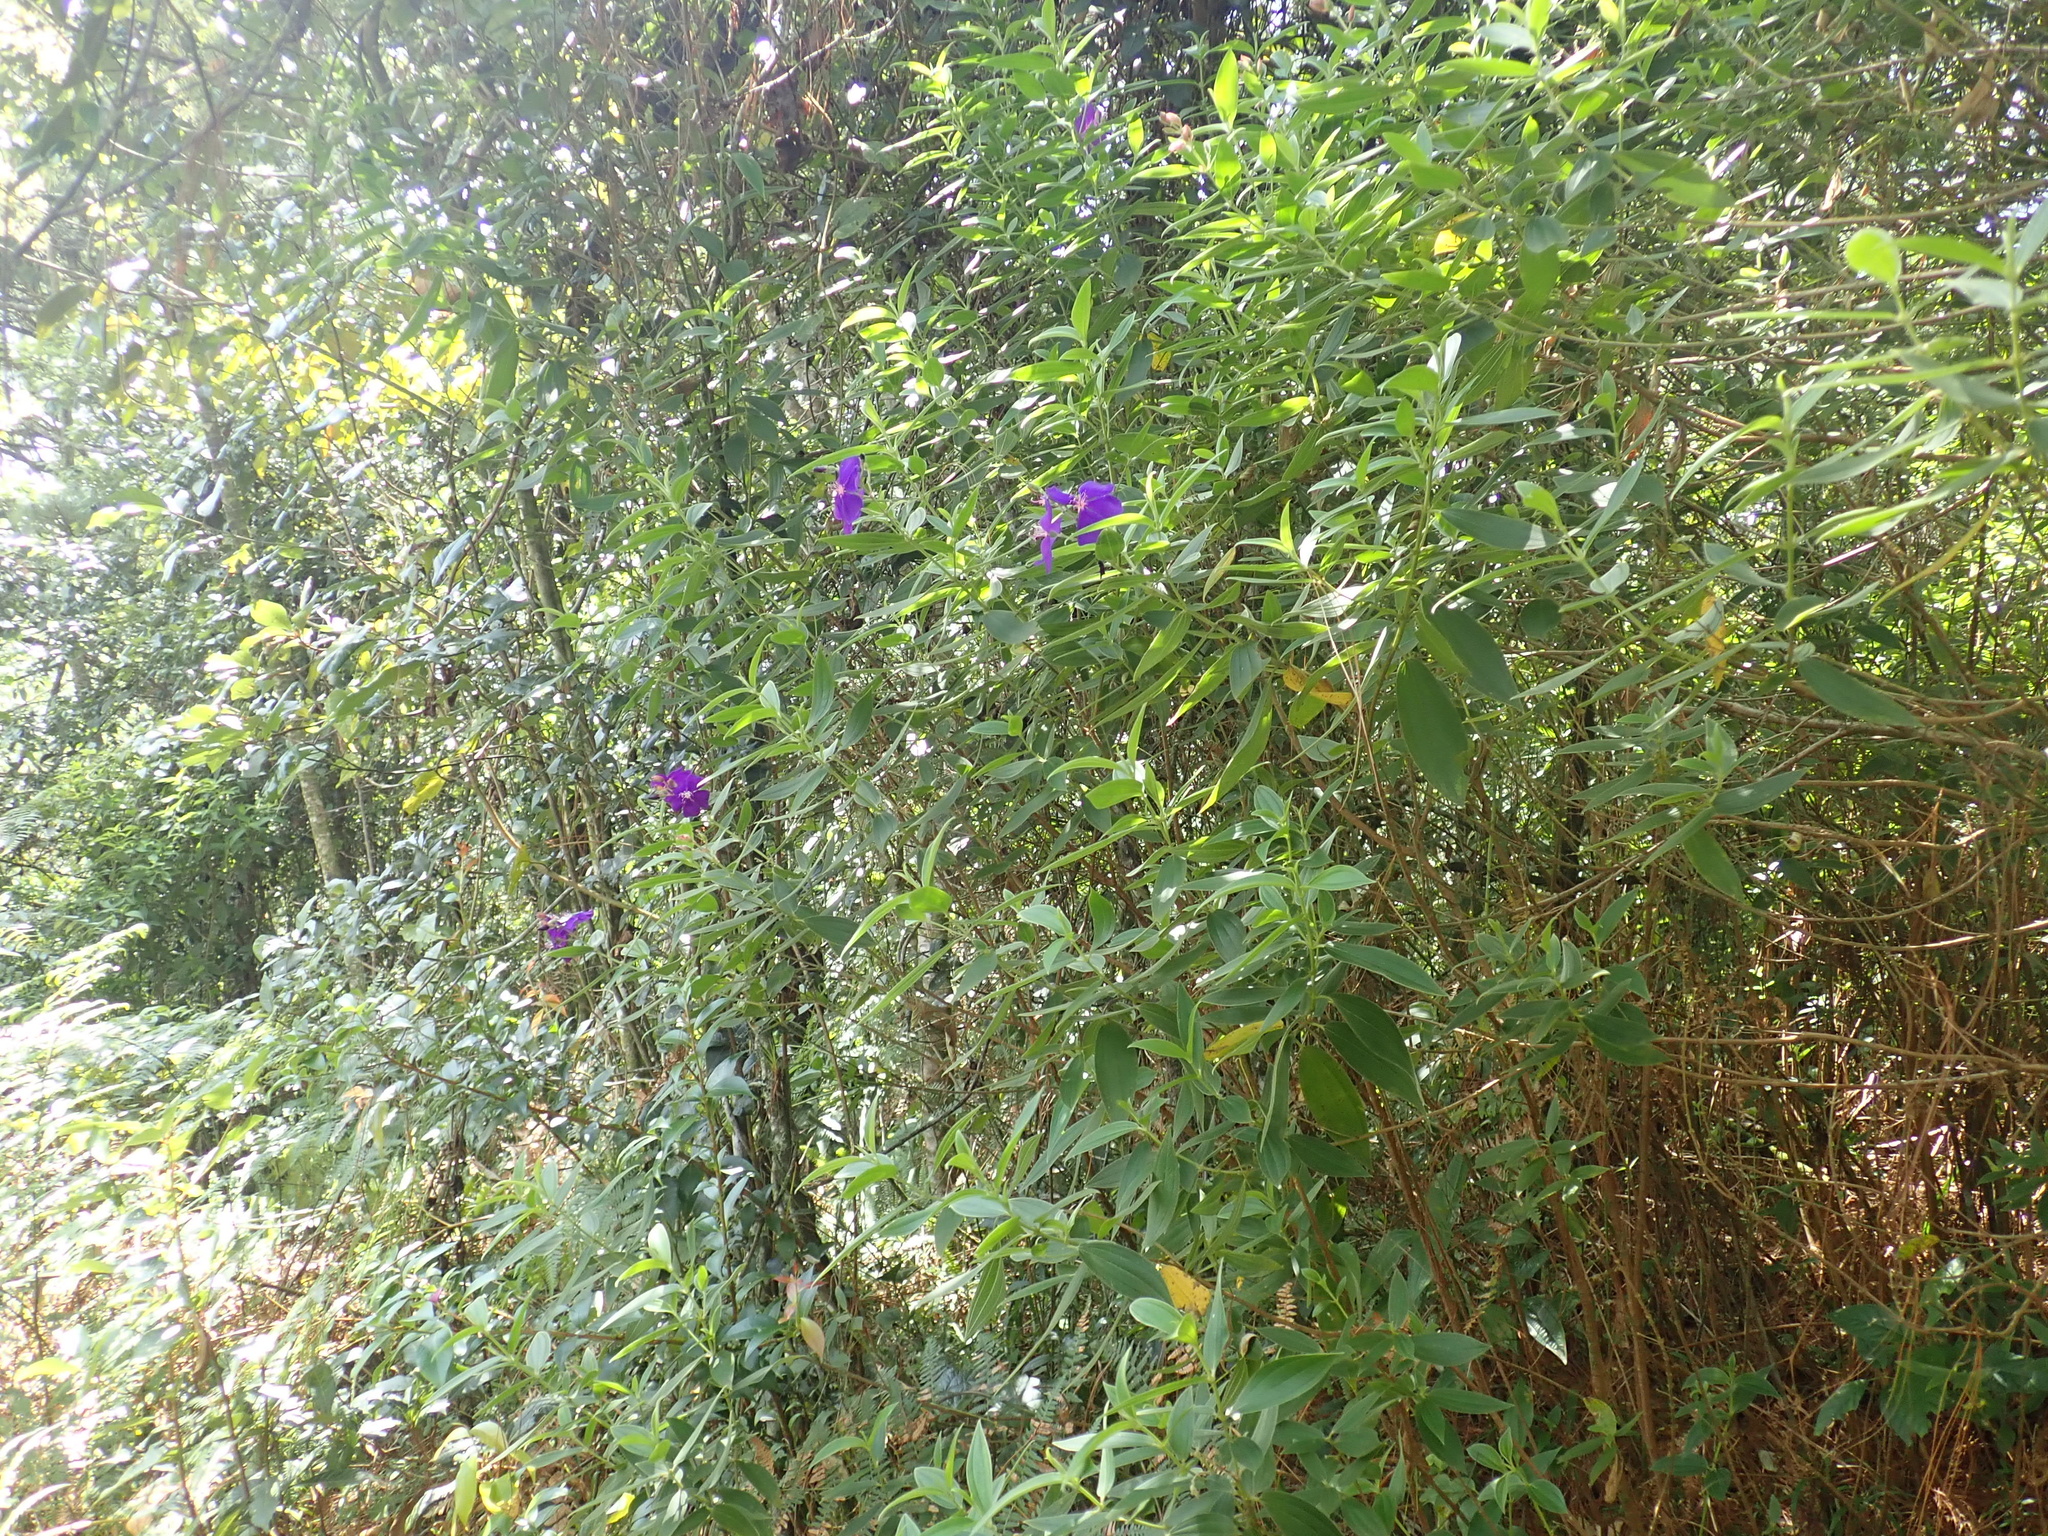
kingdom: Plantae
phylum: Tracheophyta
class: Magnoliopsida
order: Myrtales
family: Melastomataceae
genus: Pleroma
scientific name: Pleroma urvilleanum
